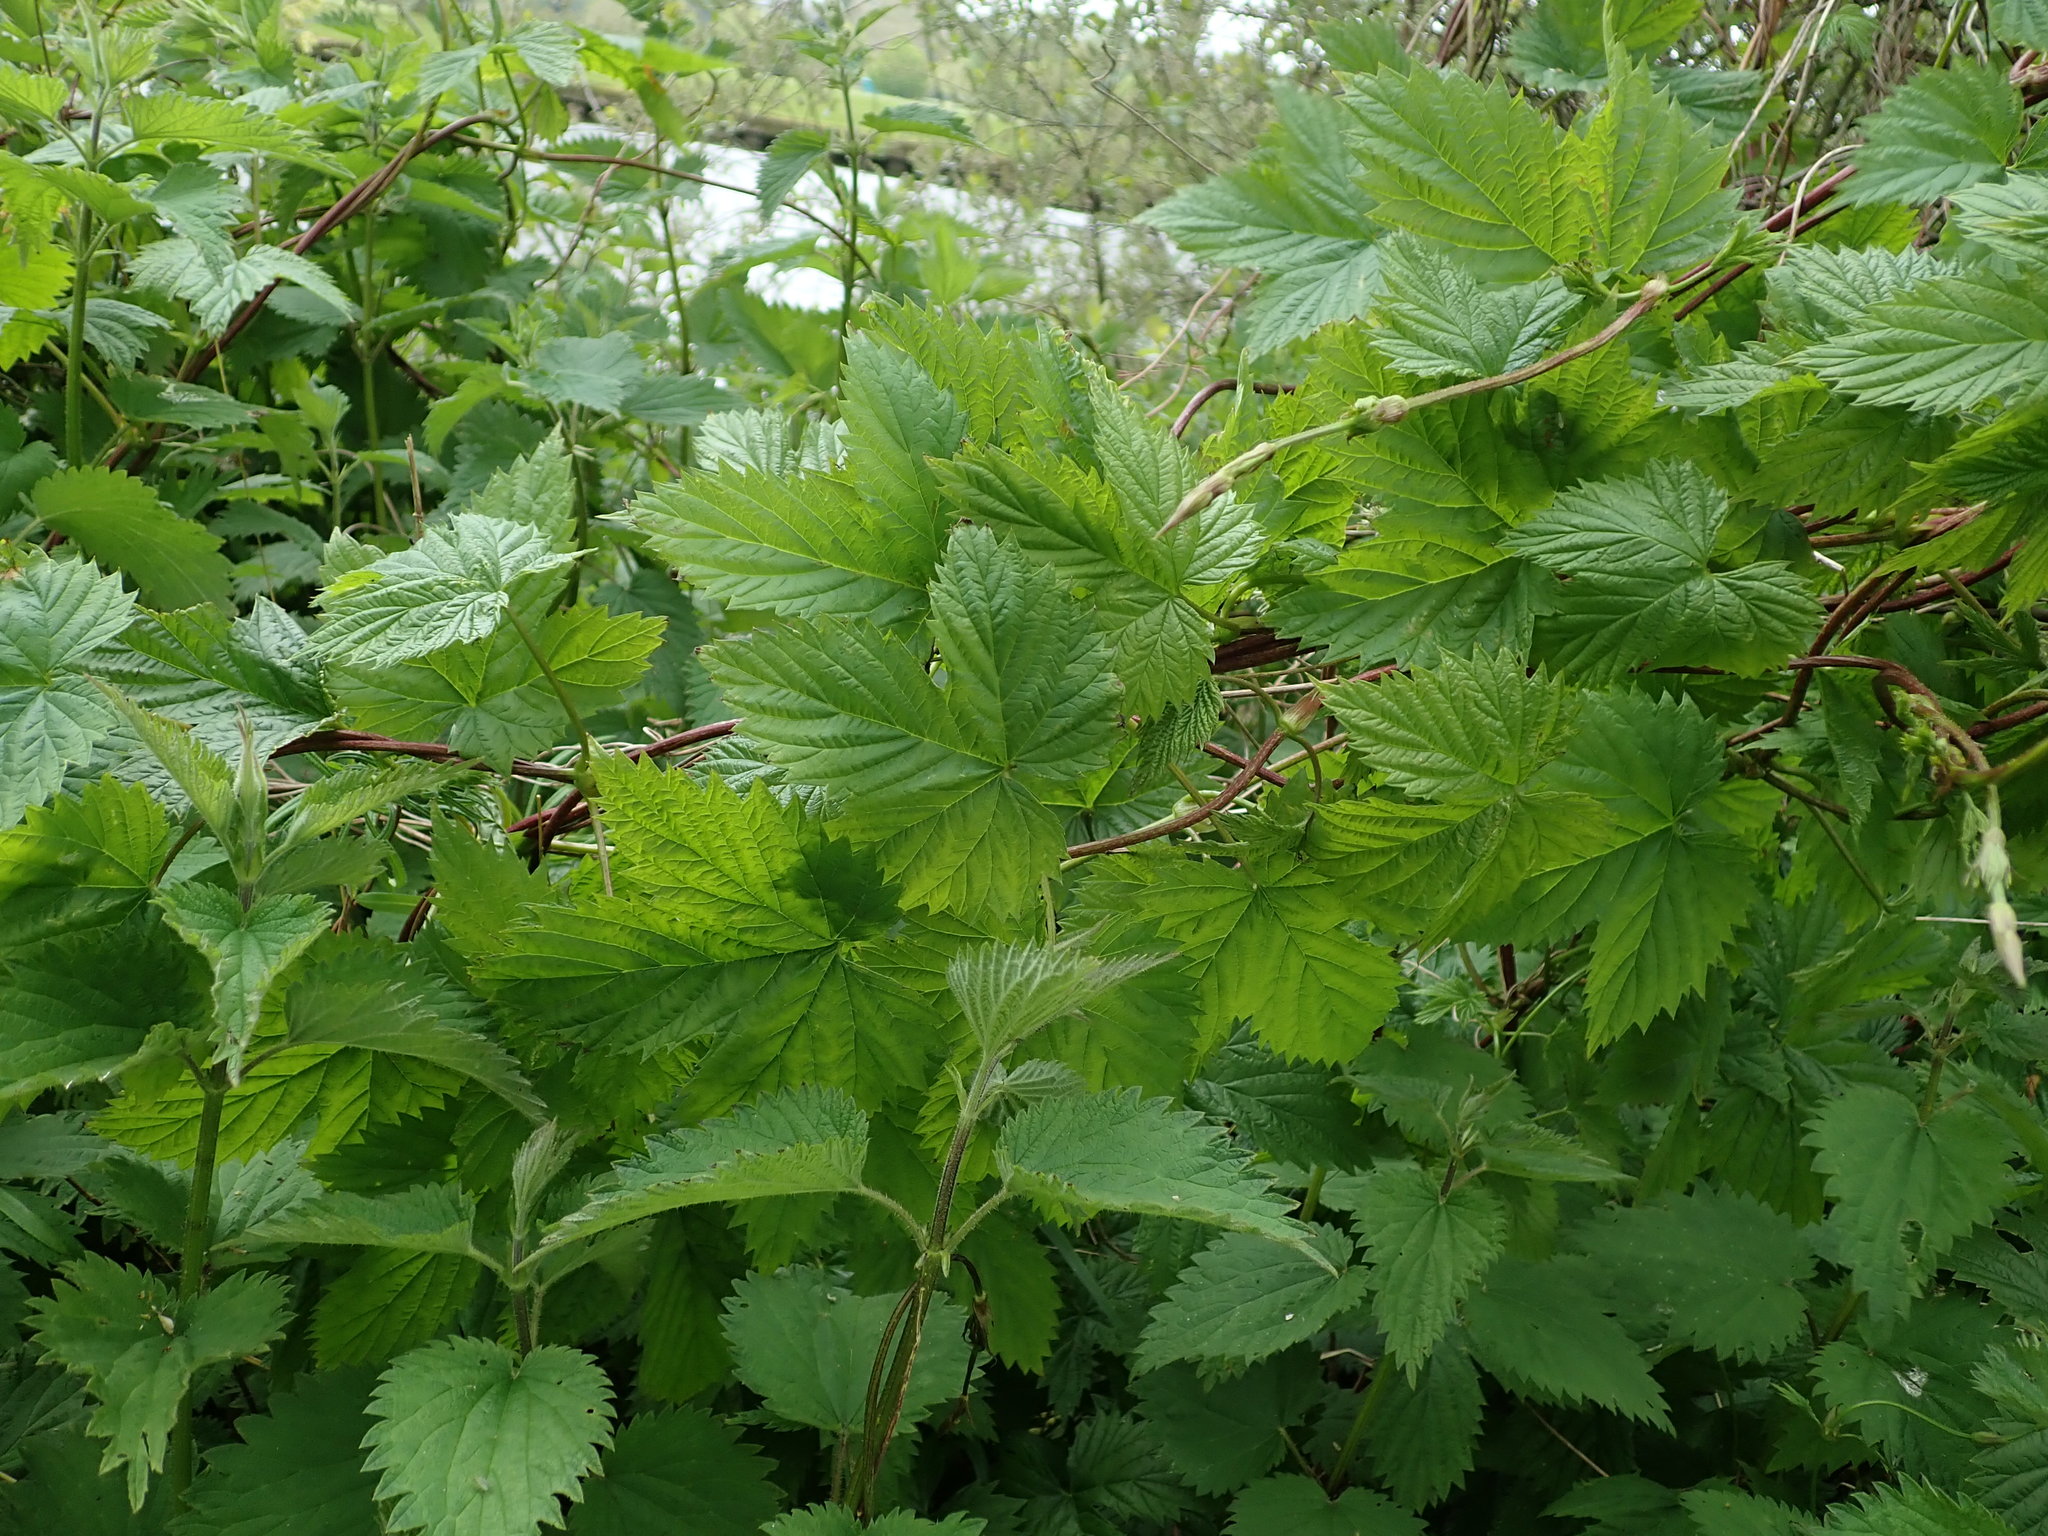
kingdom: Plantae
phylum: Tracheophyta
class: Magnoliopsida
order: Rosales
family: Cannabaceae
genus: Humulus
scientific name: Humulus lupulus
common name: Hop
